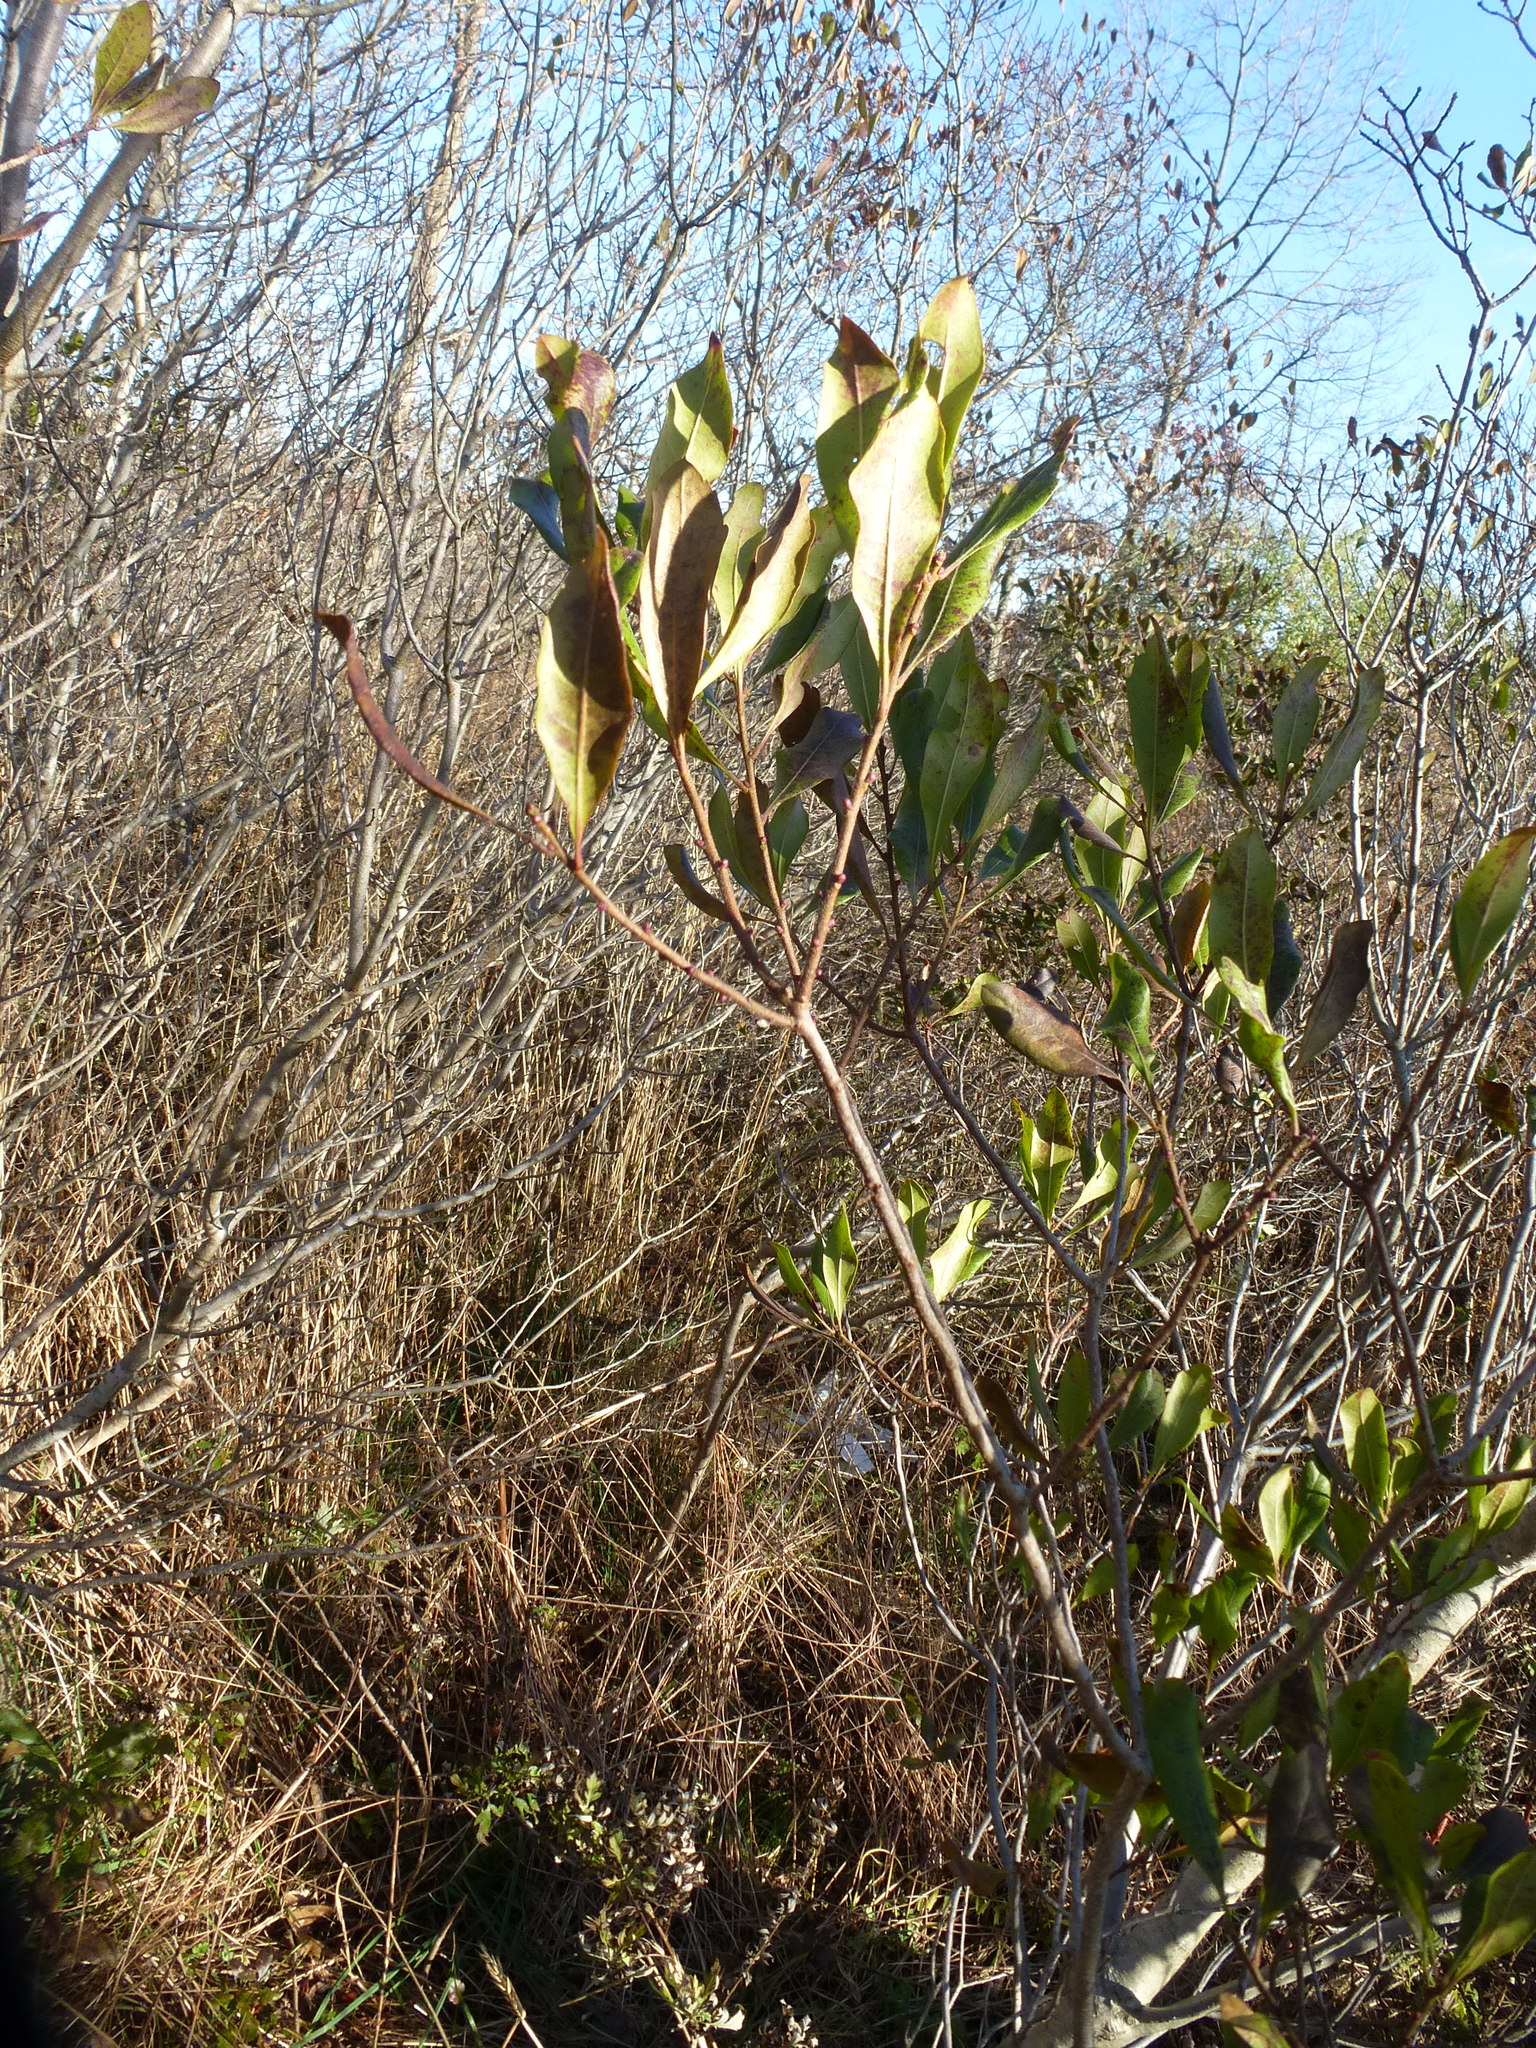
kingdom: Plantae
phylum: Tracheophyta
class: Magnoliopsida
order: Fagales
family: Myricaceae
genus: Morella
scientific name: Morella pensylvanica
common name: Northern bayberry
